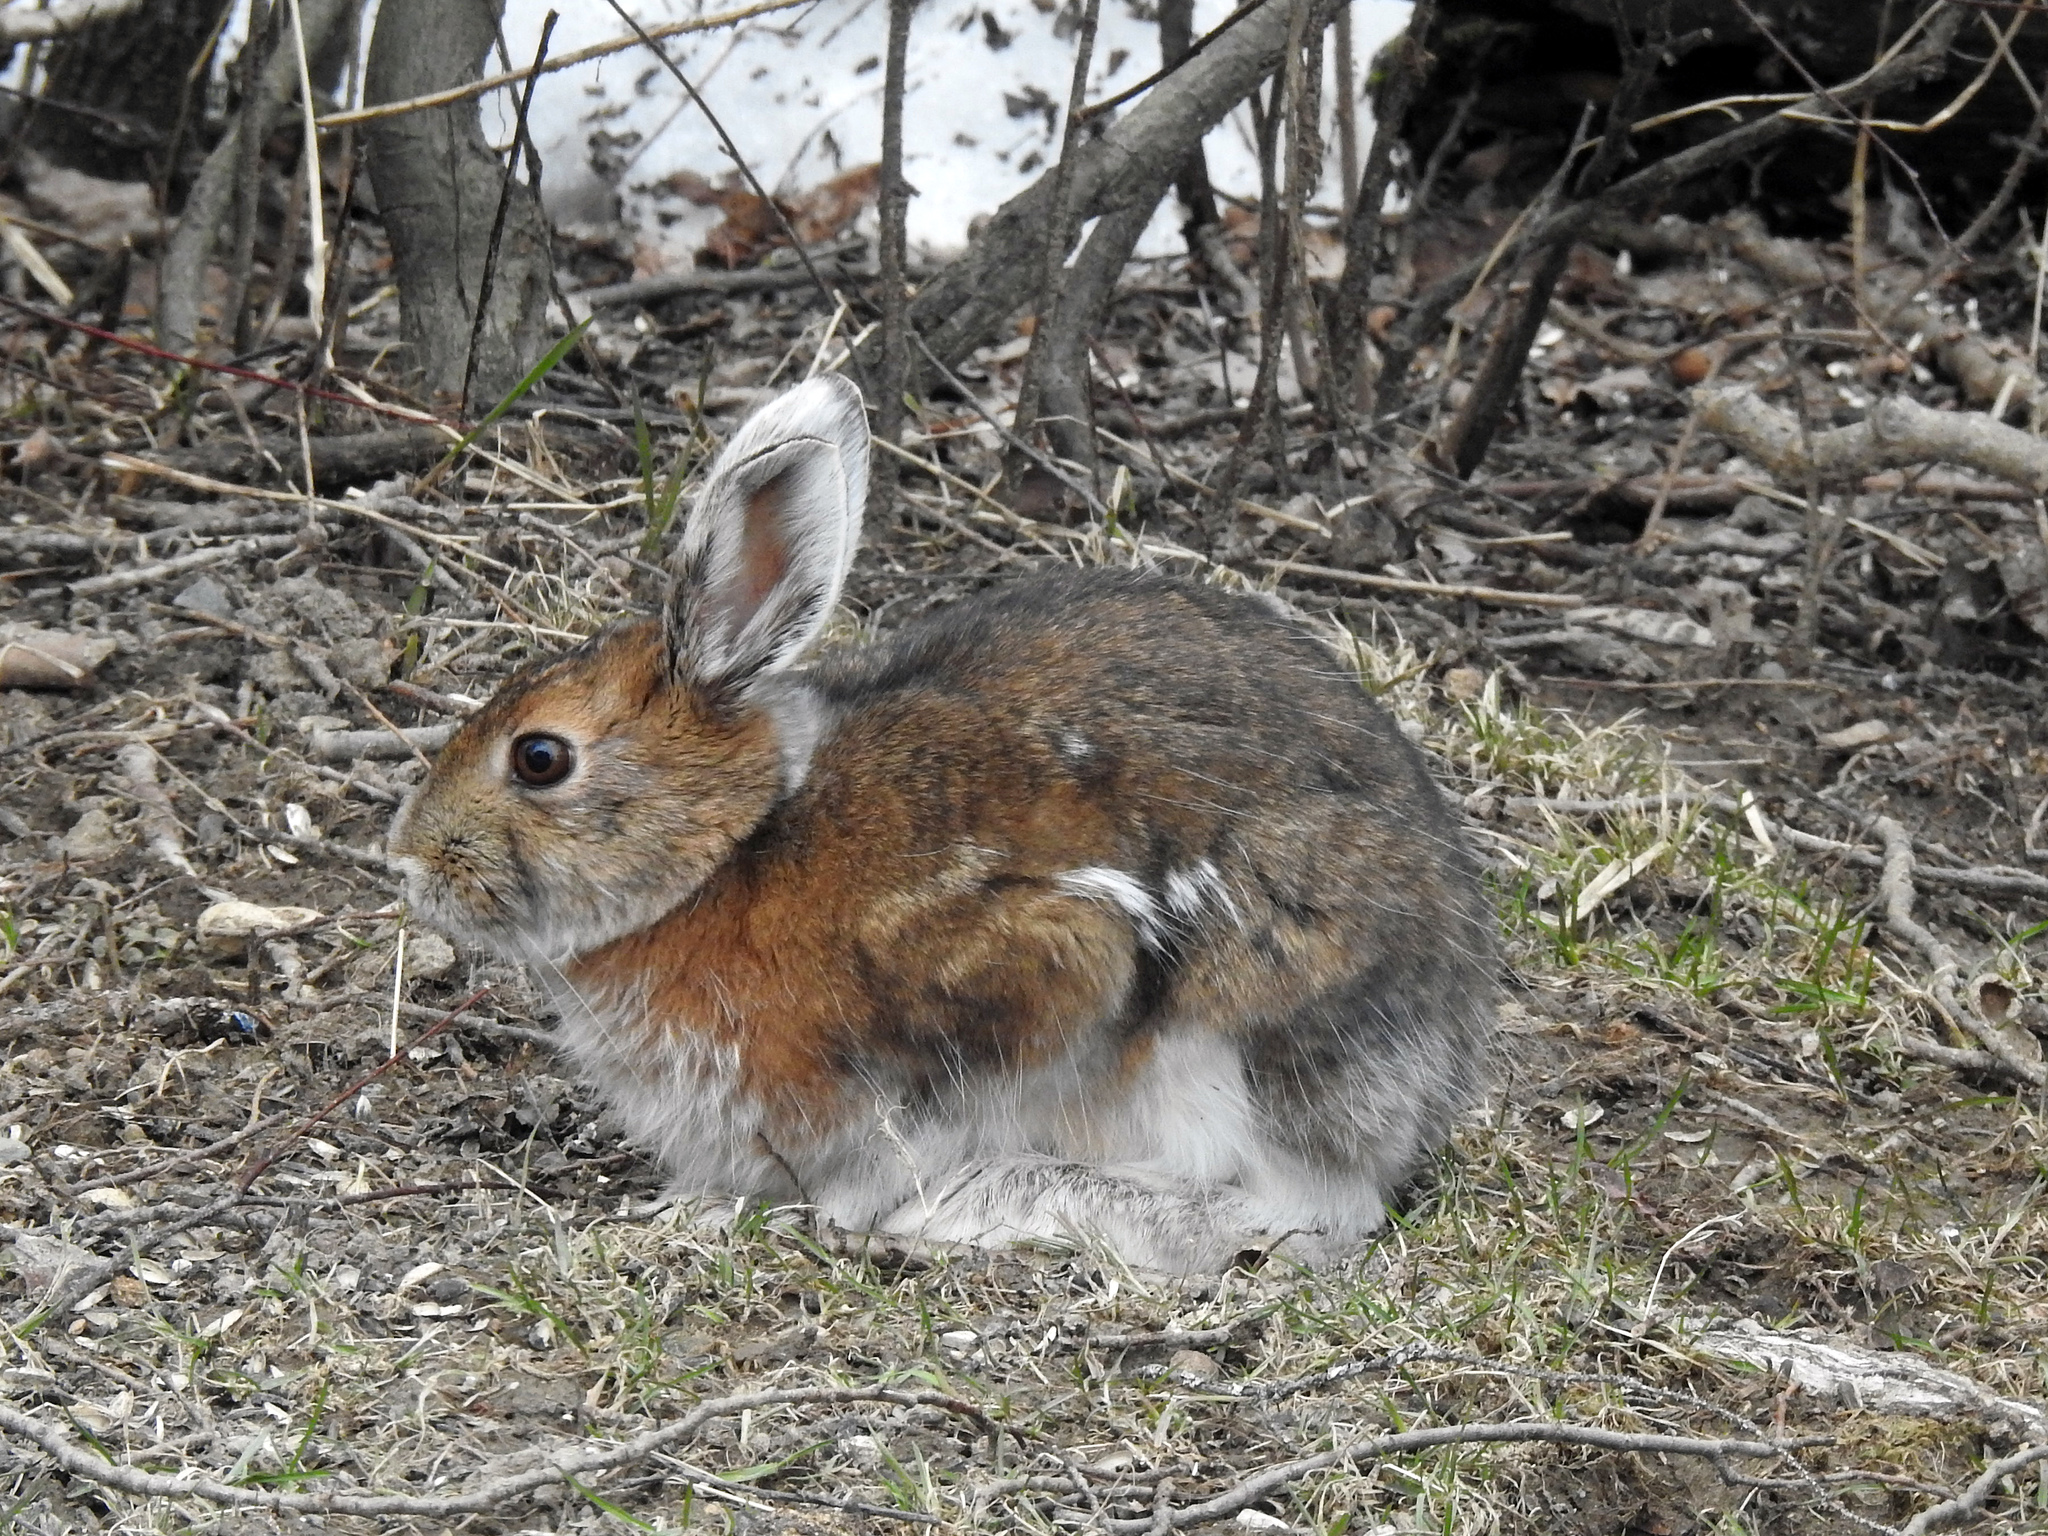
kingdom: Animalia
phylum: Chordata
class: Mammalia
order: Lagomorpha
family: Leporidae
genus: Lepus
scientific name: Lepus americanus
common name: Snowshoe hare
